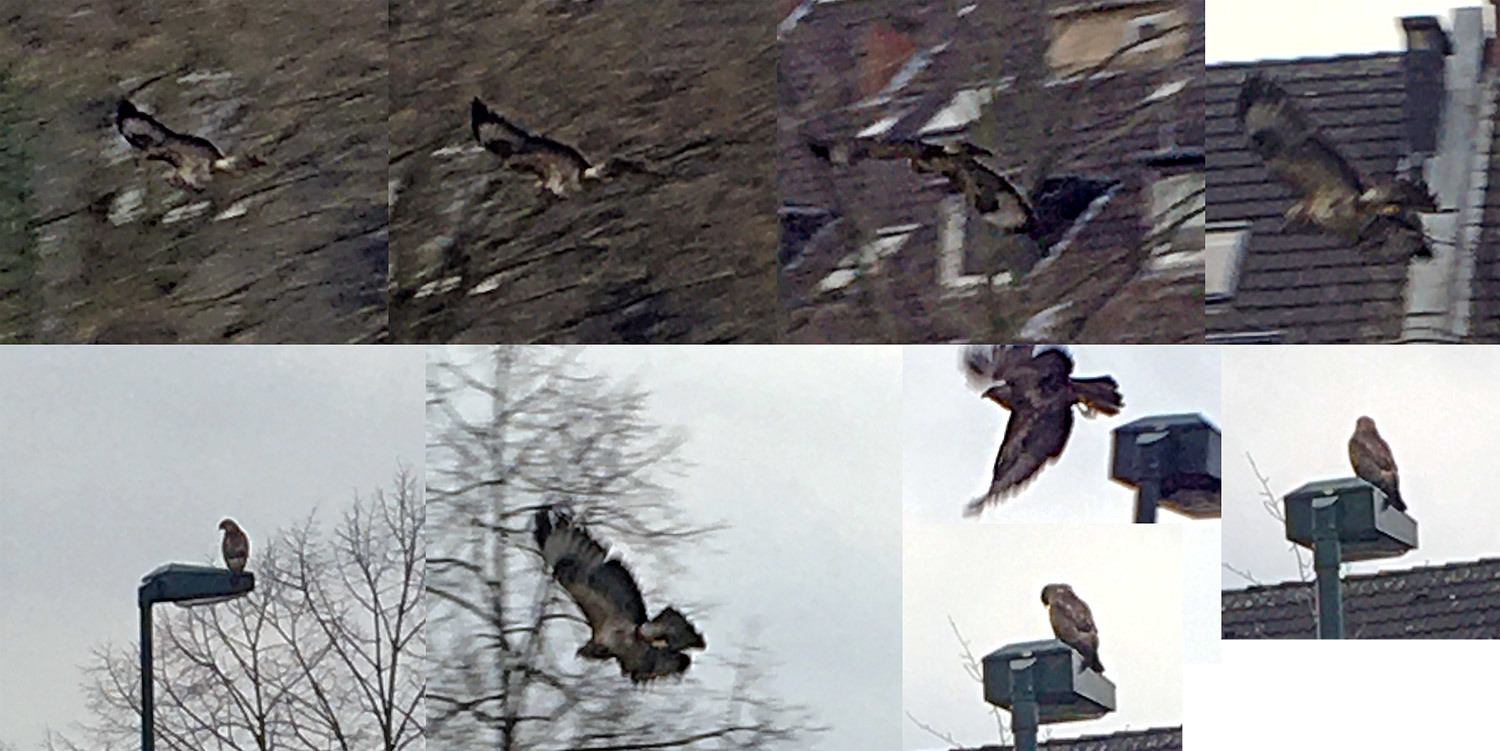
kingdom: Animalia
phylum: Chordata
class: Aves
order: Accipitriformes
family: Accipitridae
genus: Buteo
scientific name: Buteo buteo
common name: Common buzzard
